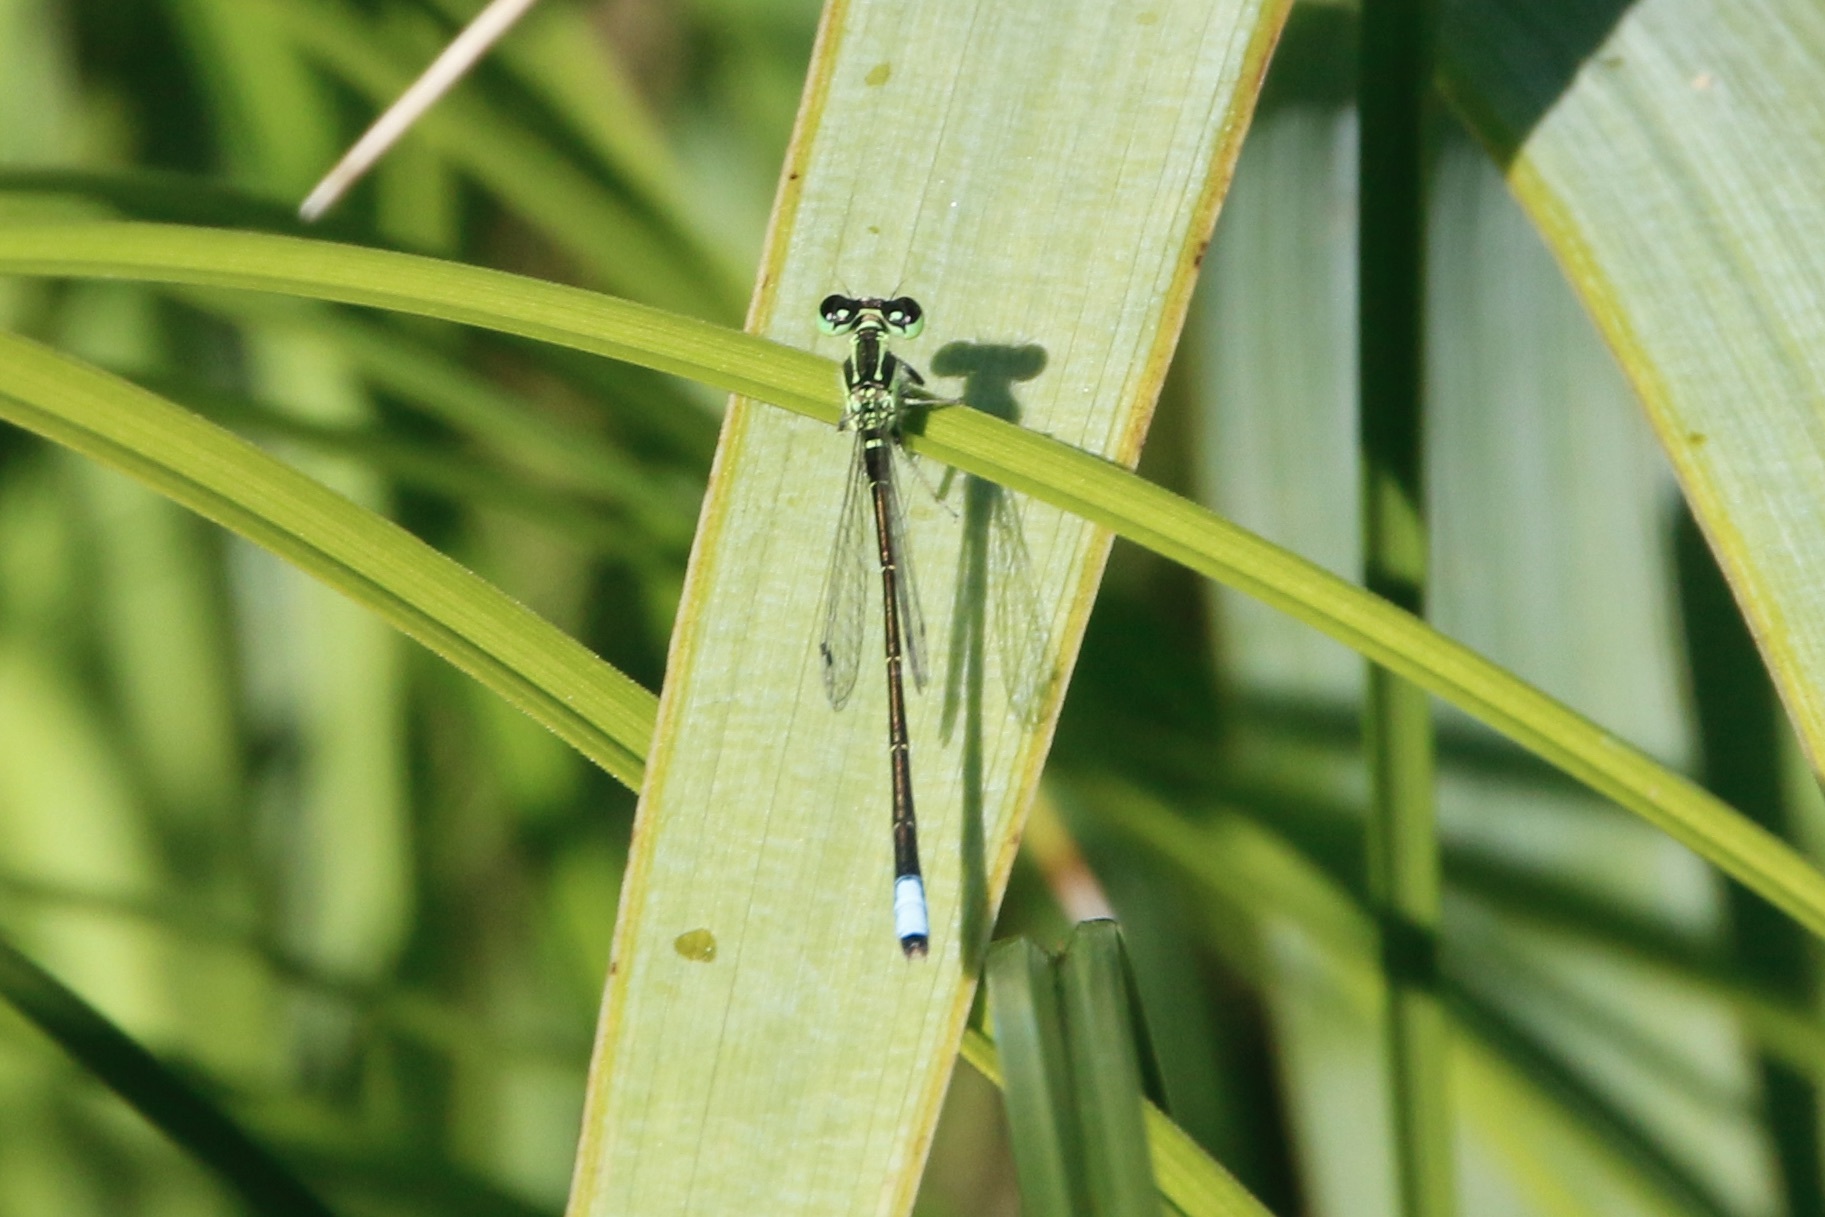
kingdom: Animalia
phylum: Arthropoda
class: Insecta
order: Odonata
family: Coenagrionidae
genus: Ischnura
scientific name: Ischnura verticalis
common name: Eastern forktail
